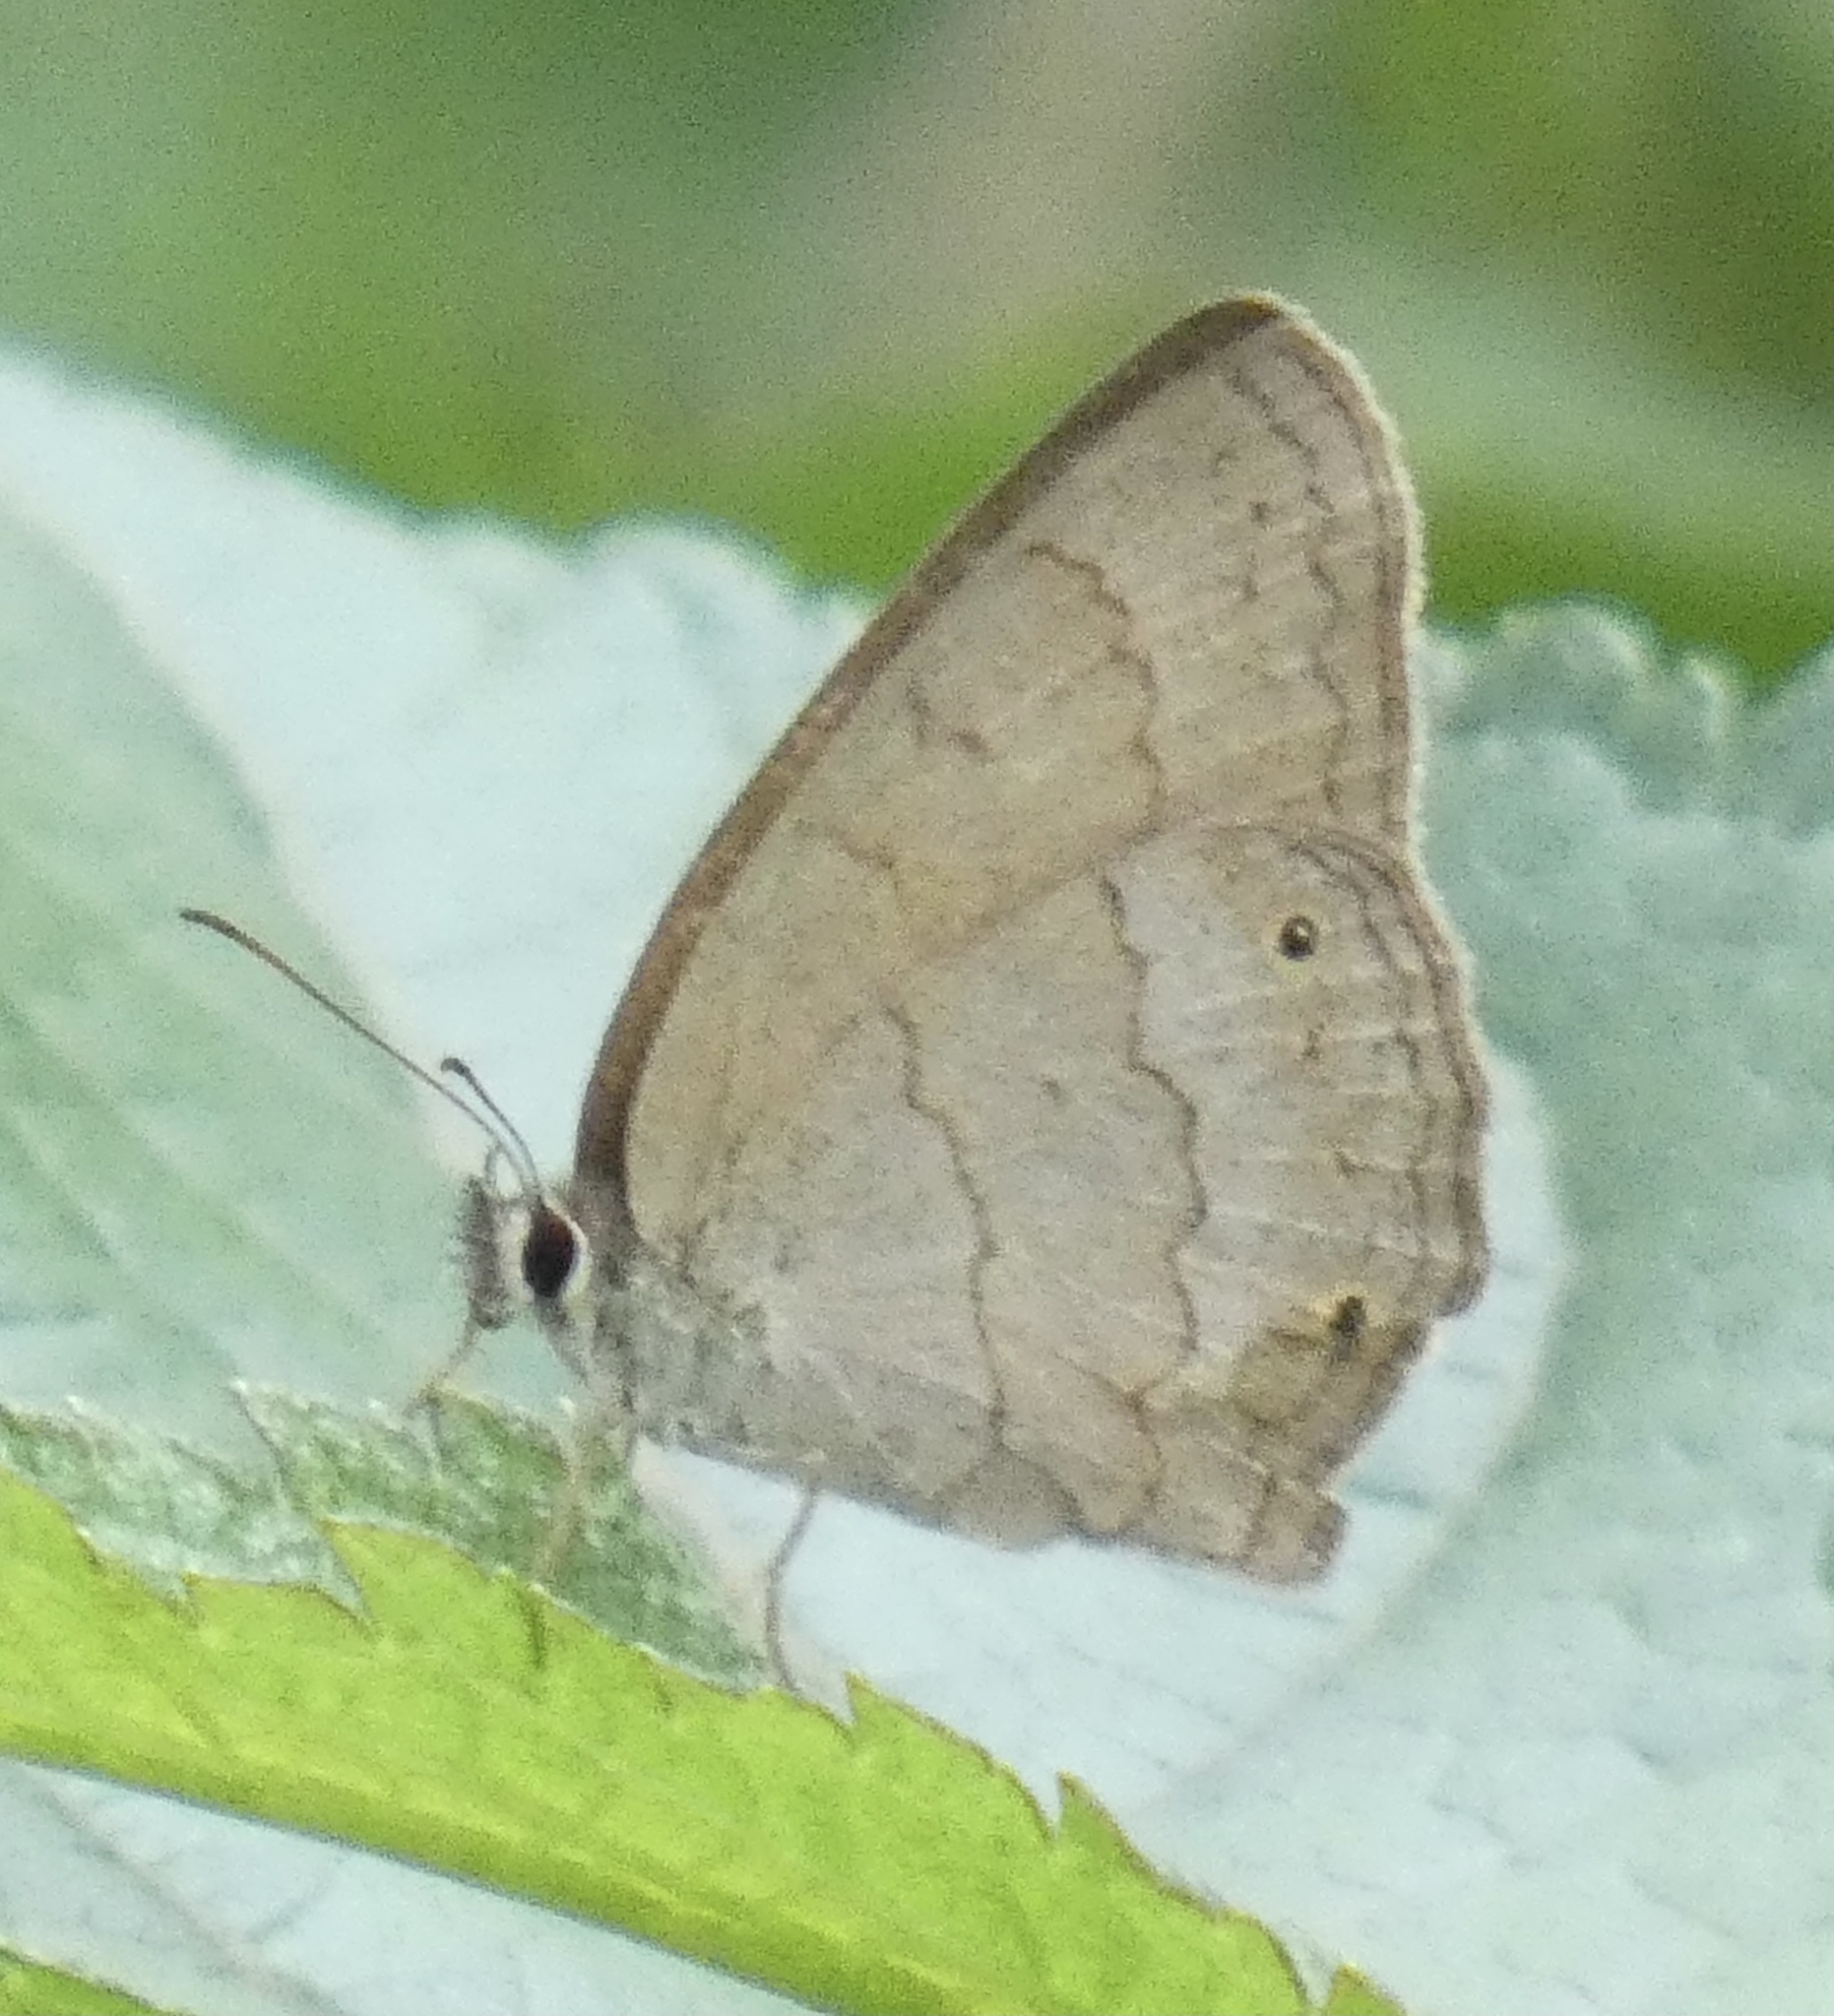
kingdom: Animalia
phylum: Arthropoda
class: Insecta
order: Lepidoptera
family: Nymphalidae
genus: Euptychia
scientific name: Euptychia Cissia eous
